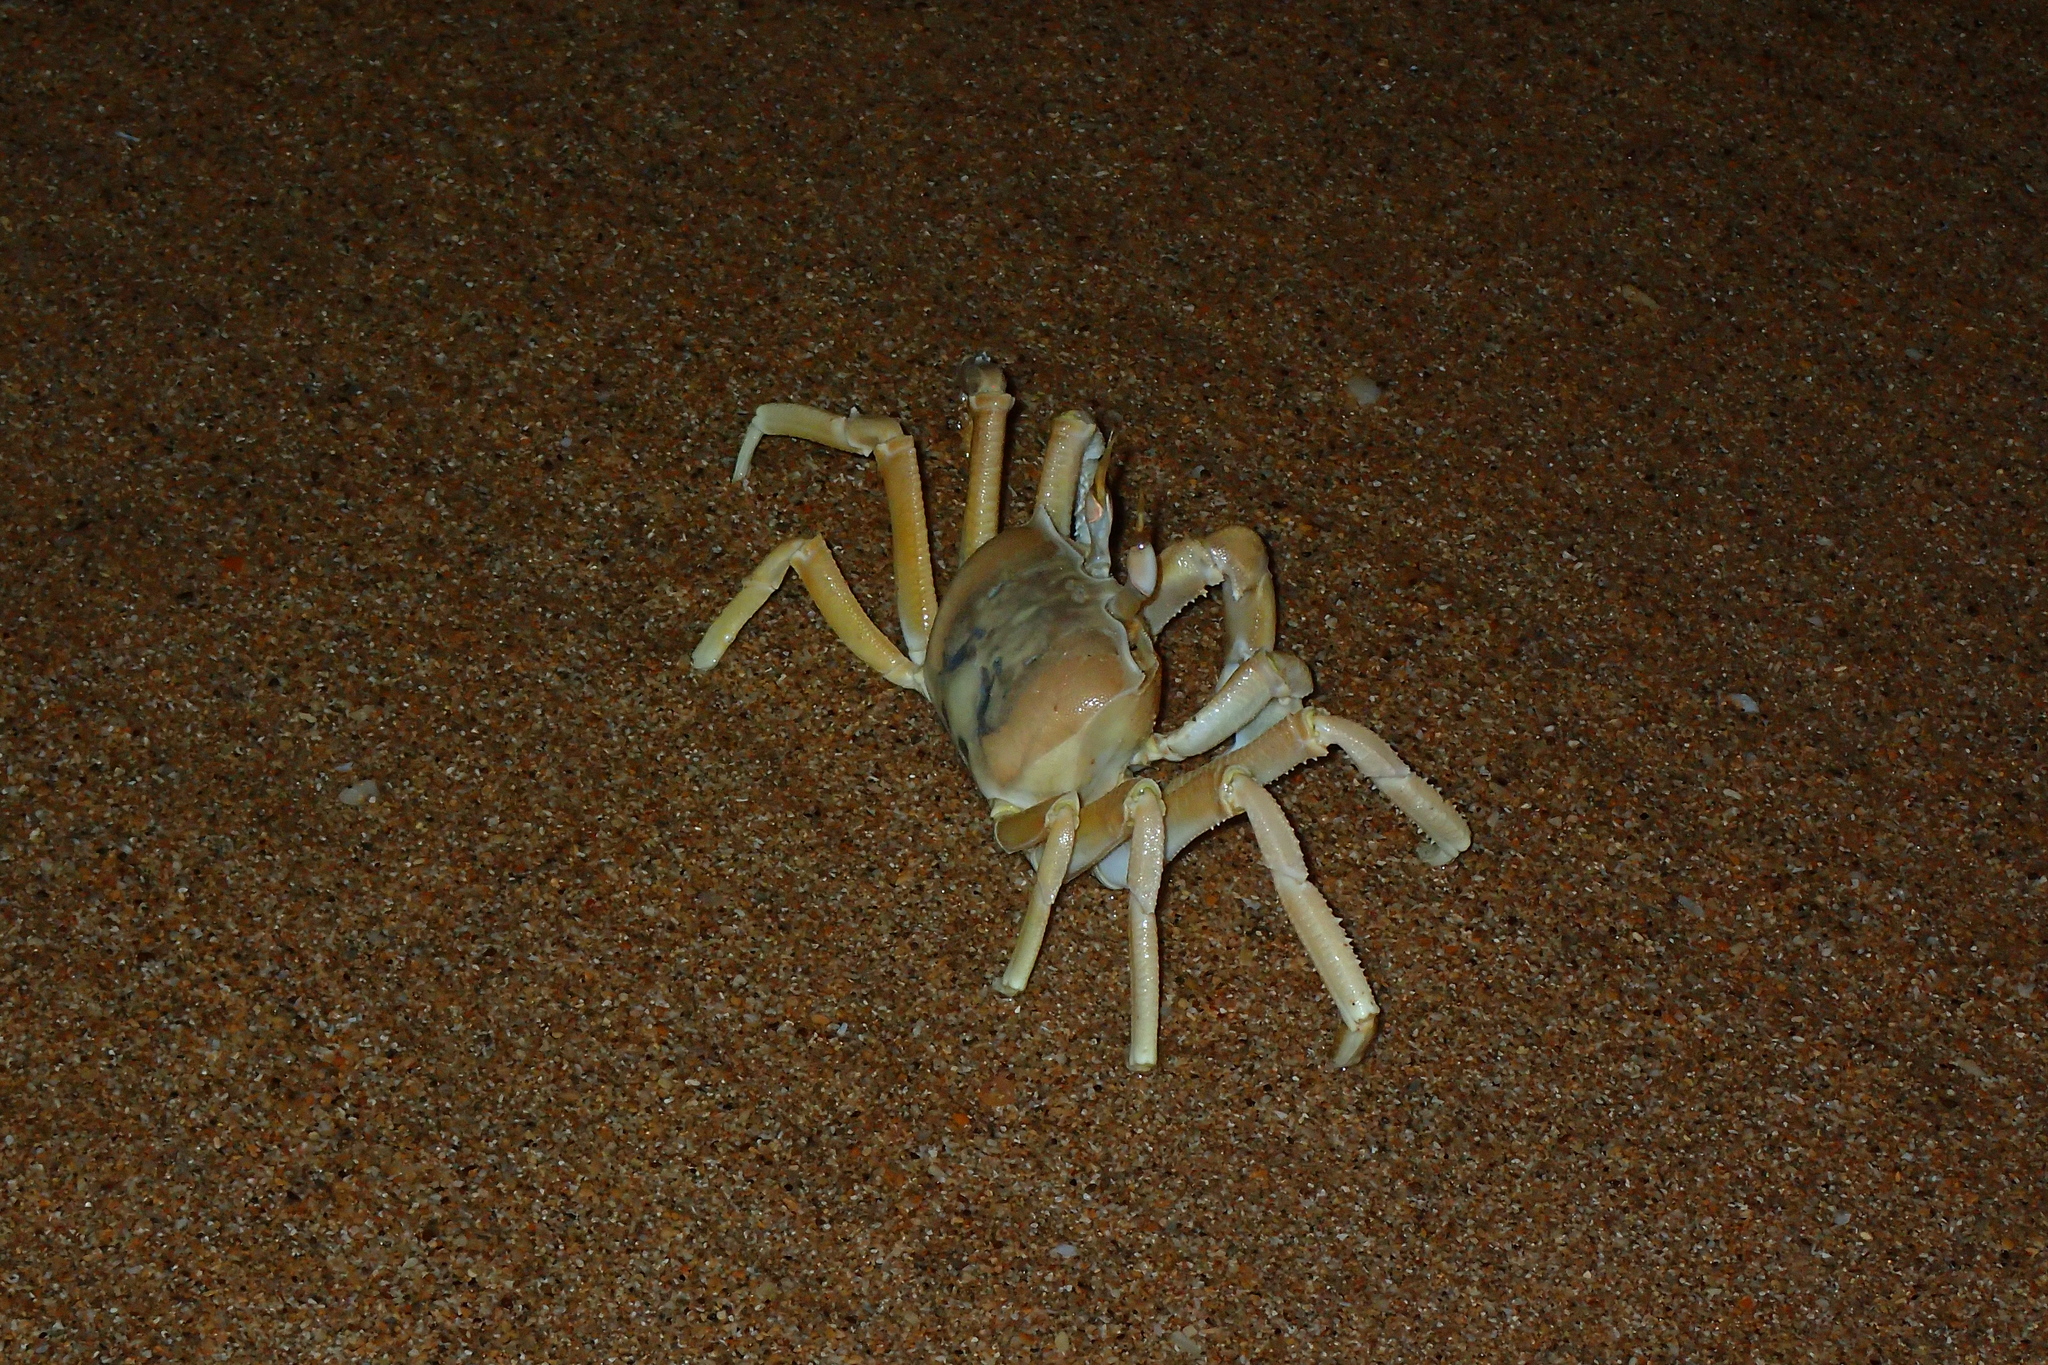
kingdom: Animalia
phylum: Arthropoda
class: Malacostraca
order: Decapoda
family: Ocypodidae
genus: Ocypode
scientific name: Ocypode cursor
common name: Tufted ghost crab
